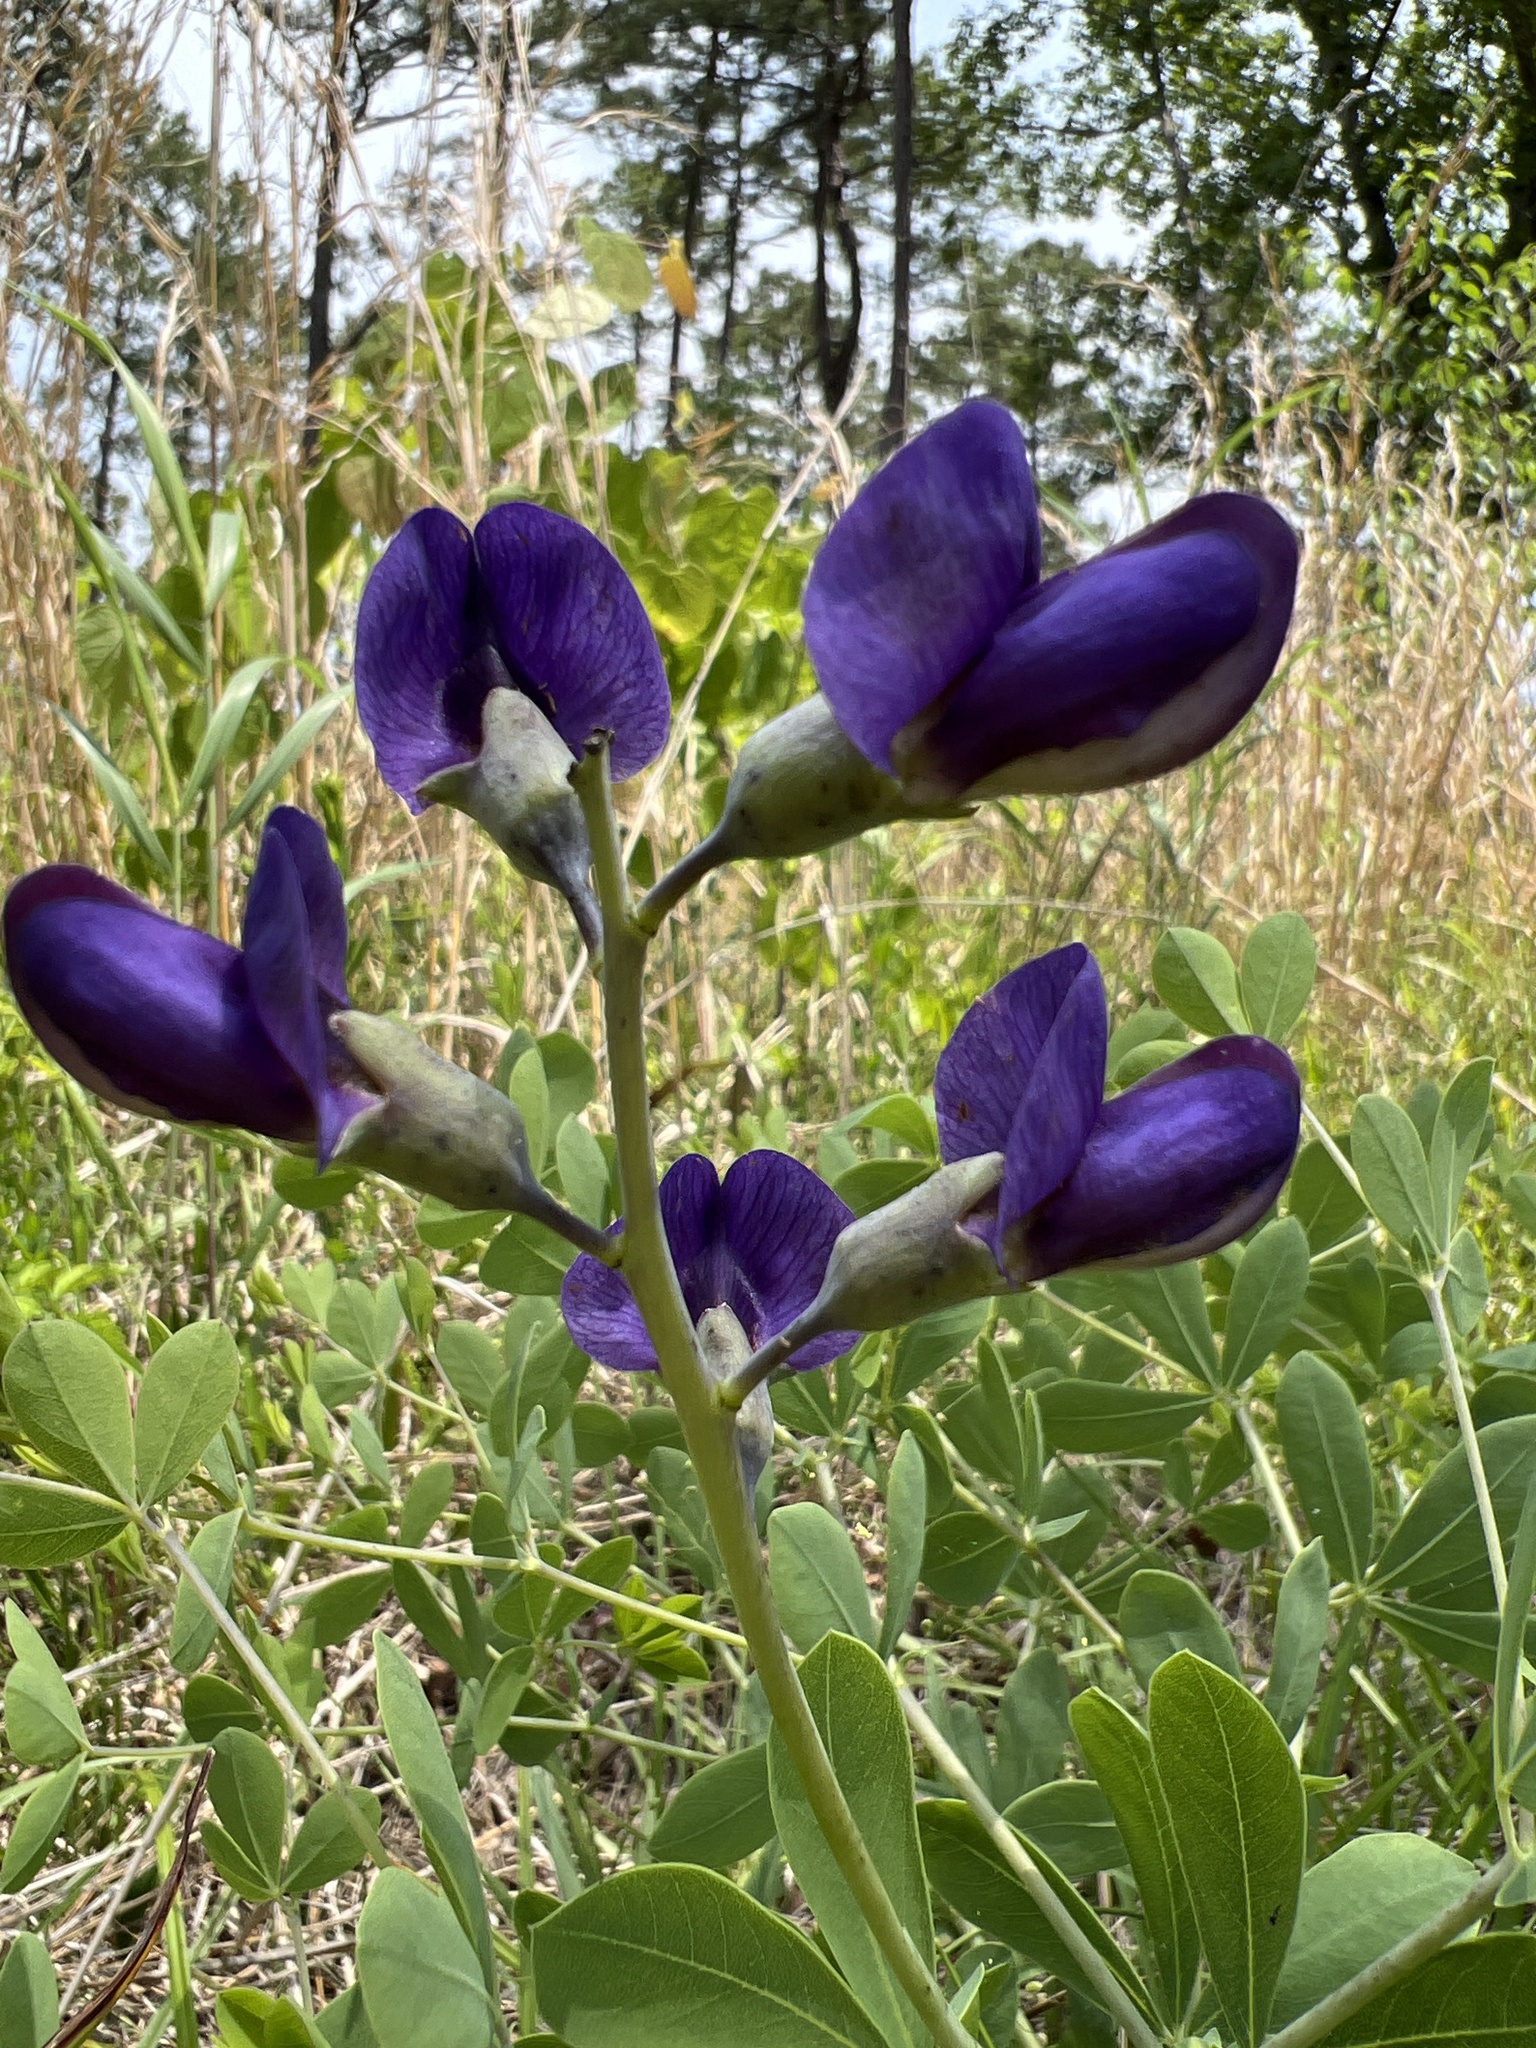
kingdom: Plantae
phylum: Tracheophyta
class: Magnoliopsida
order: Fabales
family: Fabaceae
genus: Baptisia
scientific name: Baptisia aberrans
